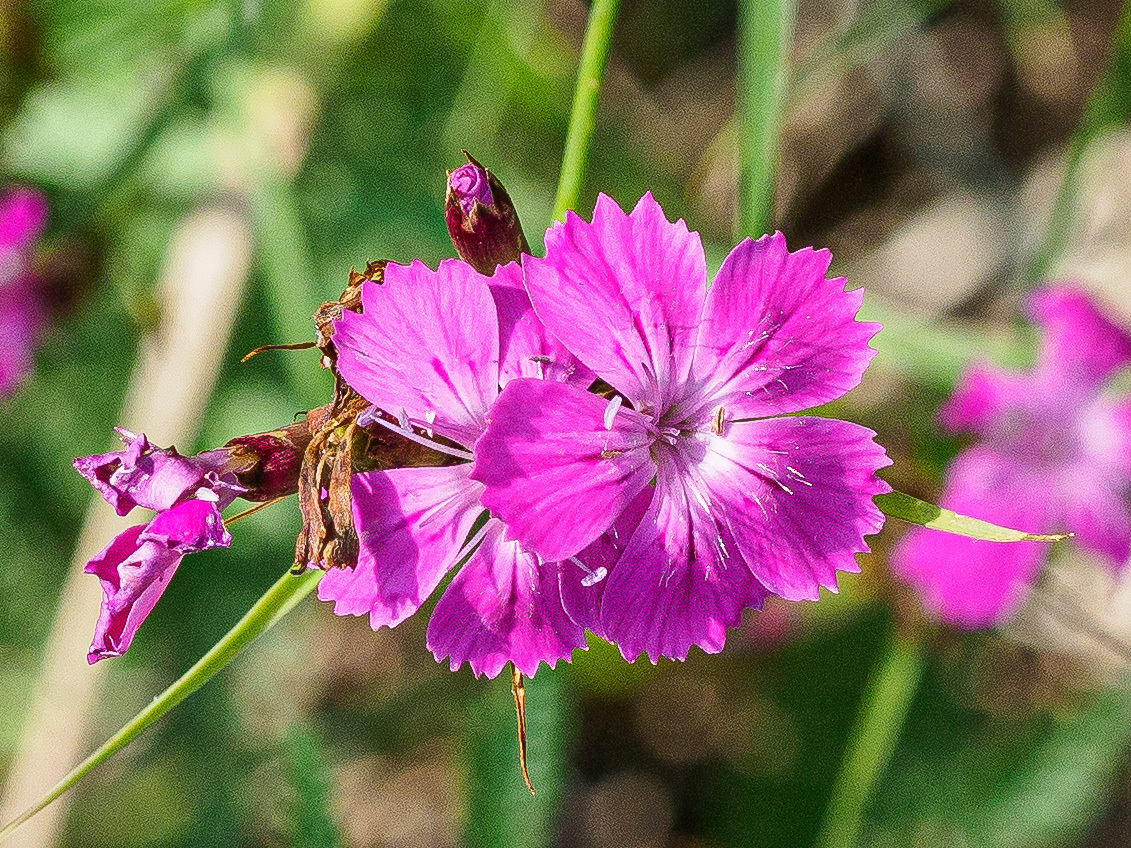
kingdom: Plantae
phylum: Tracheophyta
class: Magnoliopsida
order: Caryophyllales
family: Caryophyllaceae
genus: Dianthus
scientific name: Dianthus carthusianorum
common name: Carthusian pink
